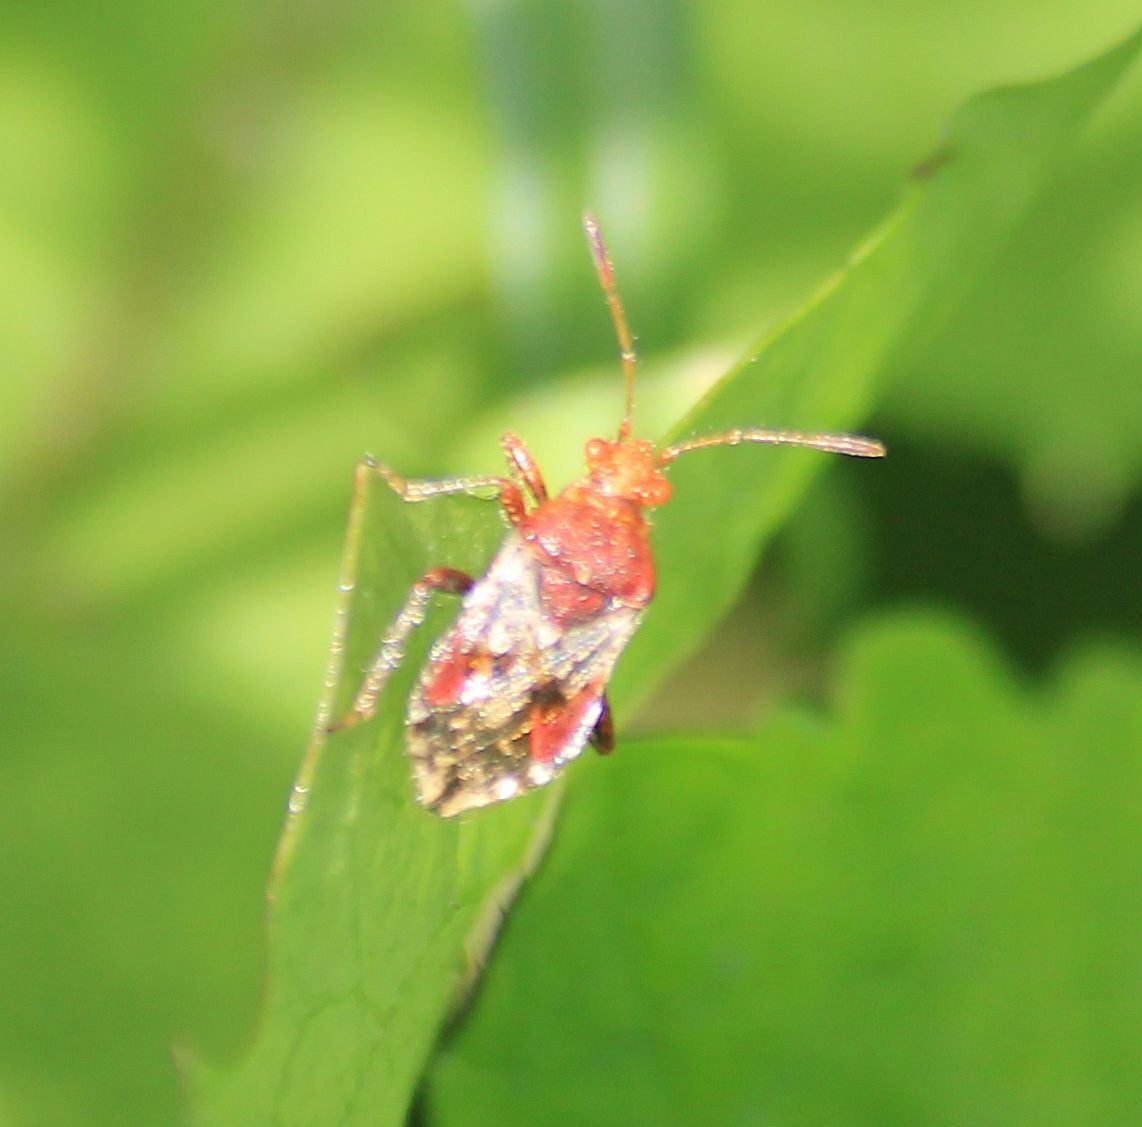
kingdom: Animalia
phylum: Arthropoda
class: Insecta
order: Hemiptera
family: Rhopalidae
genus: Rhopalus
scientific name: Rhopalus subrufus
